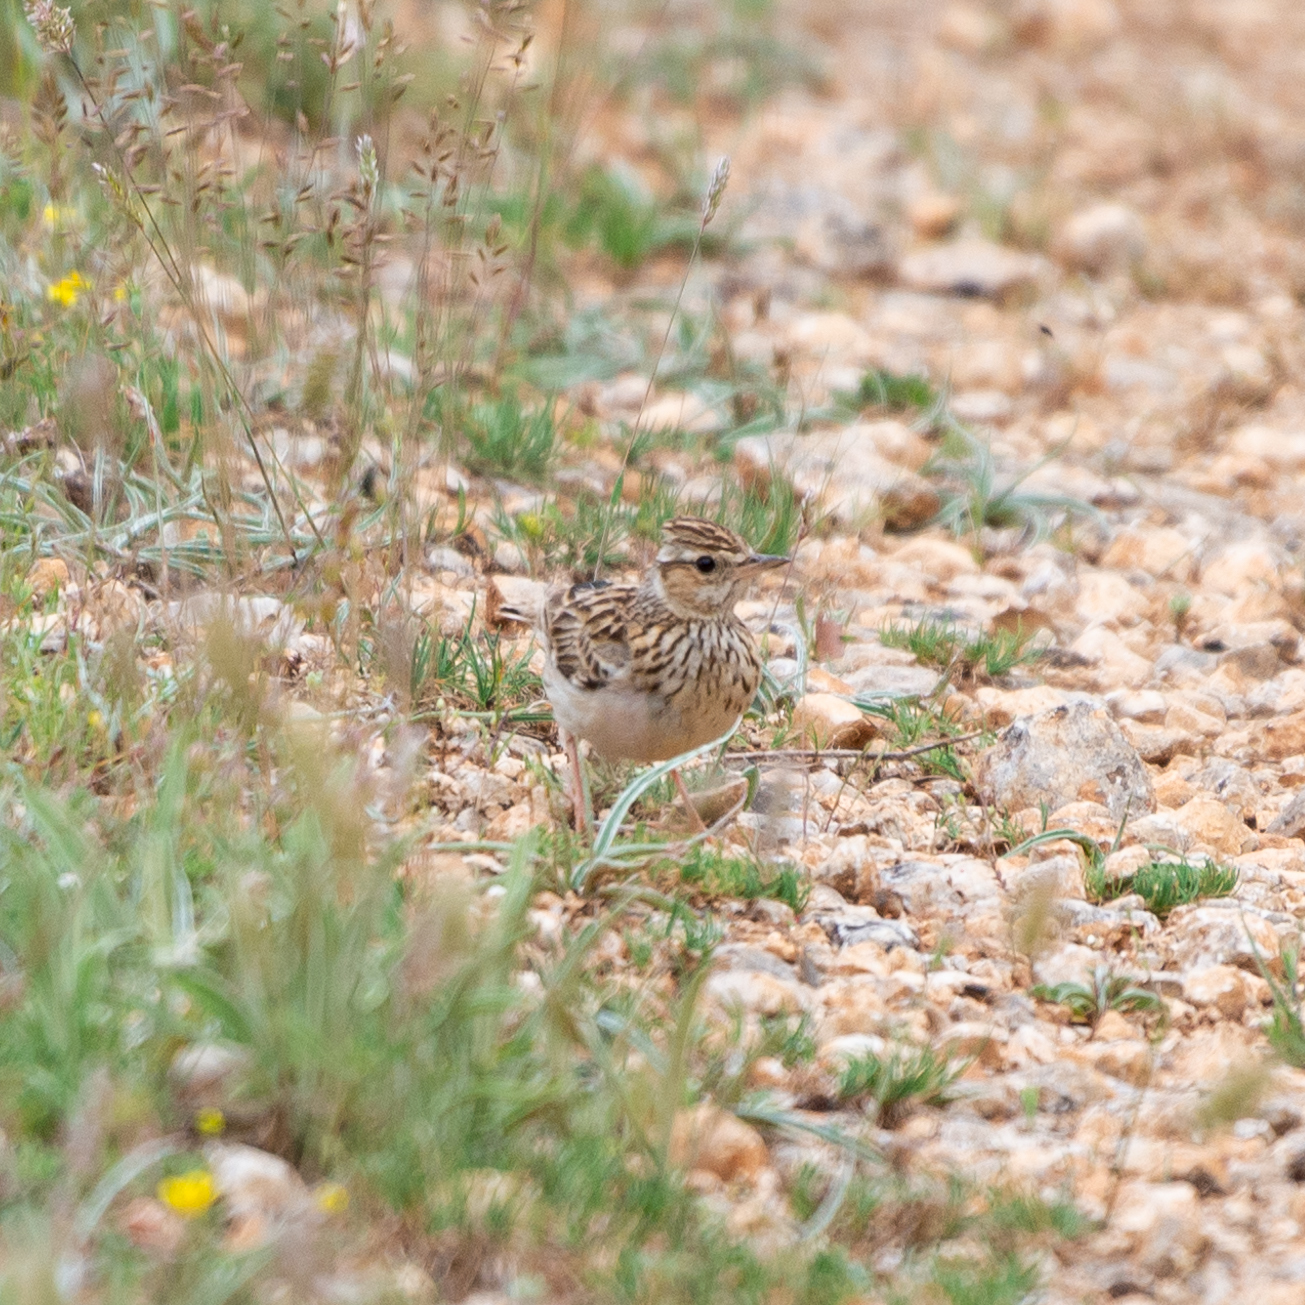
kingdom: Animalia
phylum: Chordata
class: Aves
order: Passeriformes
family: Alaudidae
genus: Lullula
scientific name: Lullula arborea
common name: Woodlark
